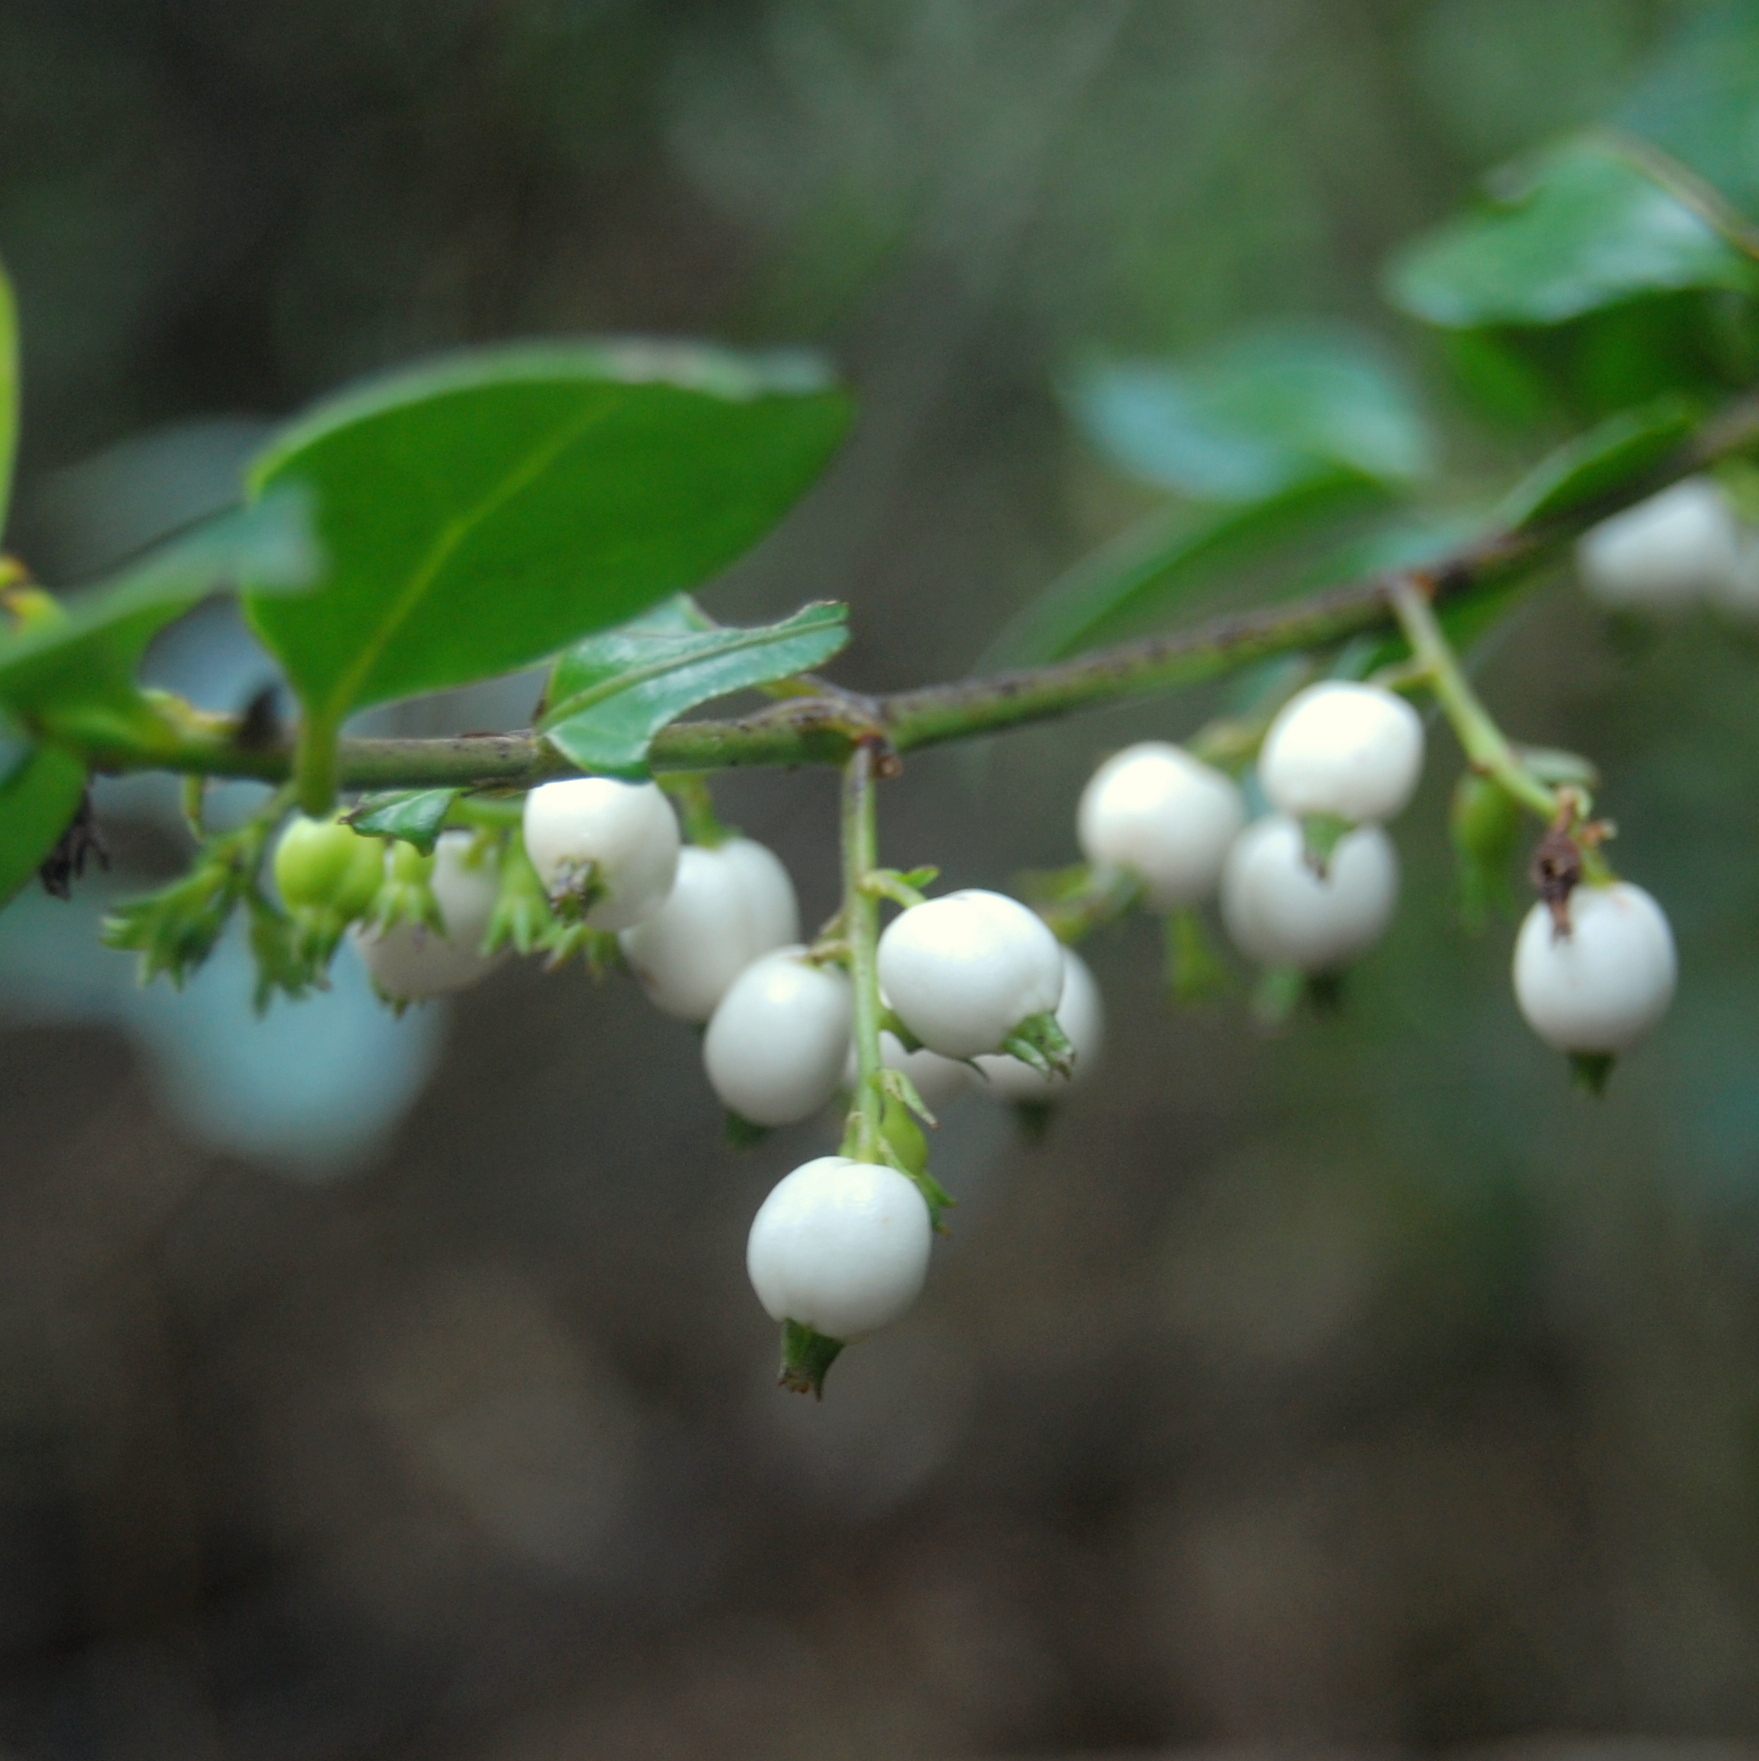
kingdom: Plantae
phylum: Tracheophyta
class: Magnoliopsida
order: Gentianales
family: Rubiaceae
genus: Chiococca
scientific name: Chiococca alba
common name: Snowberry
